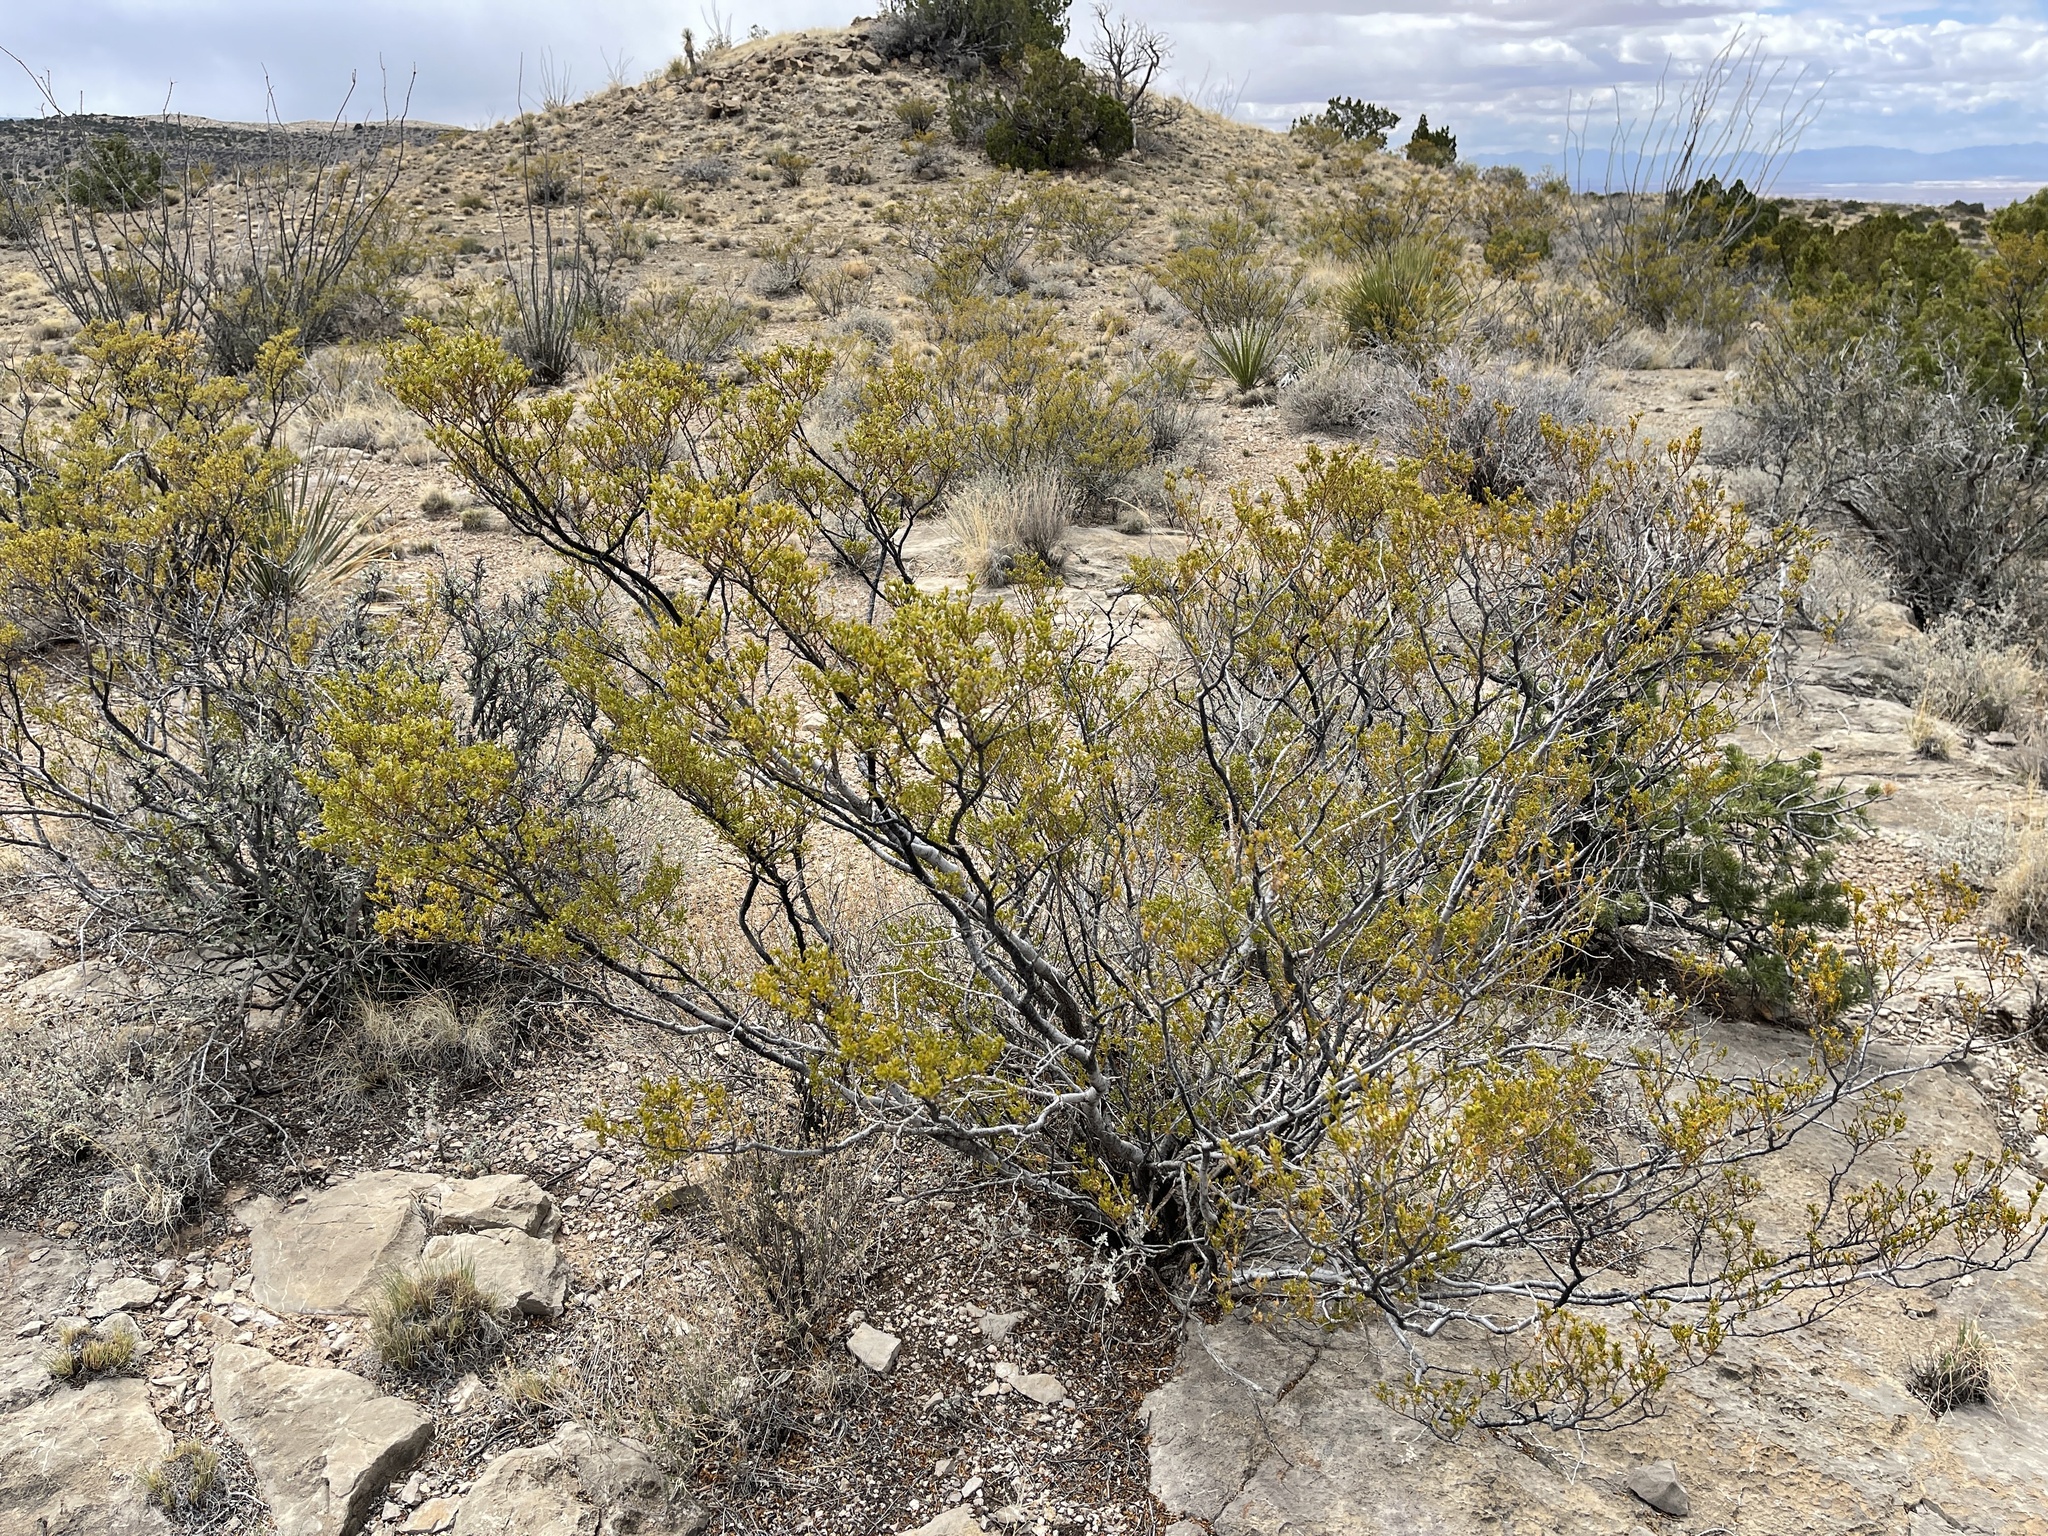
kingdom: Plantae
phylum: Tracheophyta
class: Magnoliopsida
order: Zygophyllales
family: Zygophyllaceae
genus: Larrea
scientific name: Larrea tridentata
